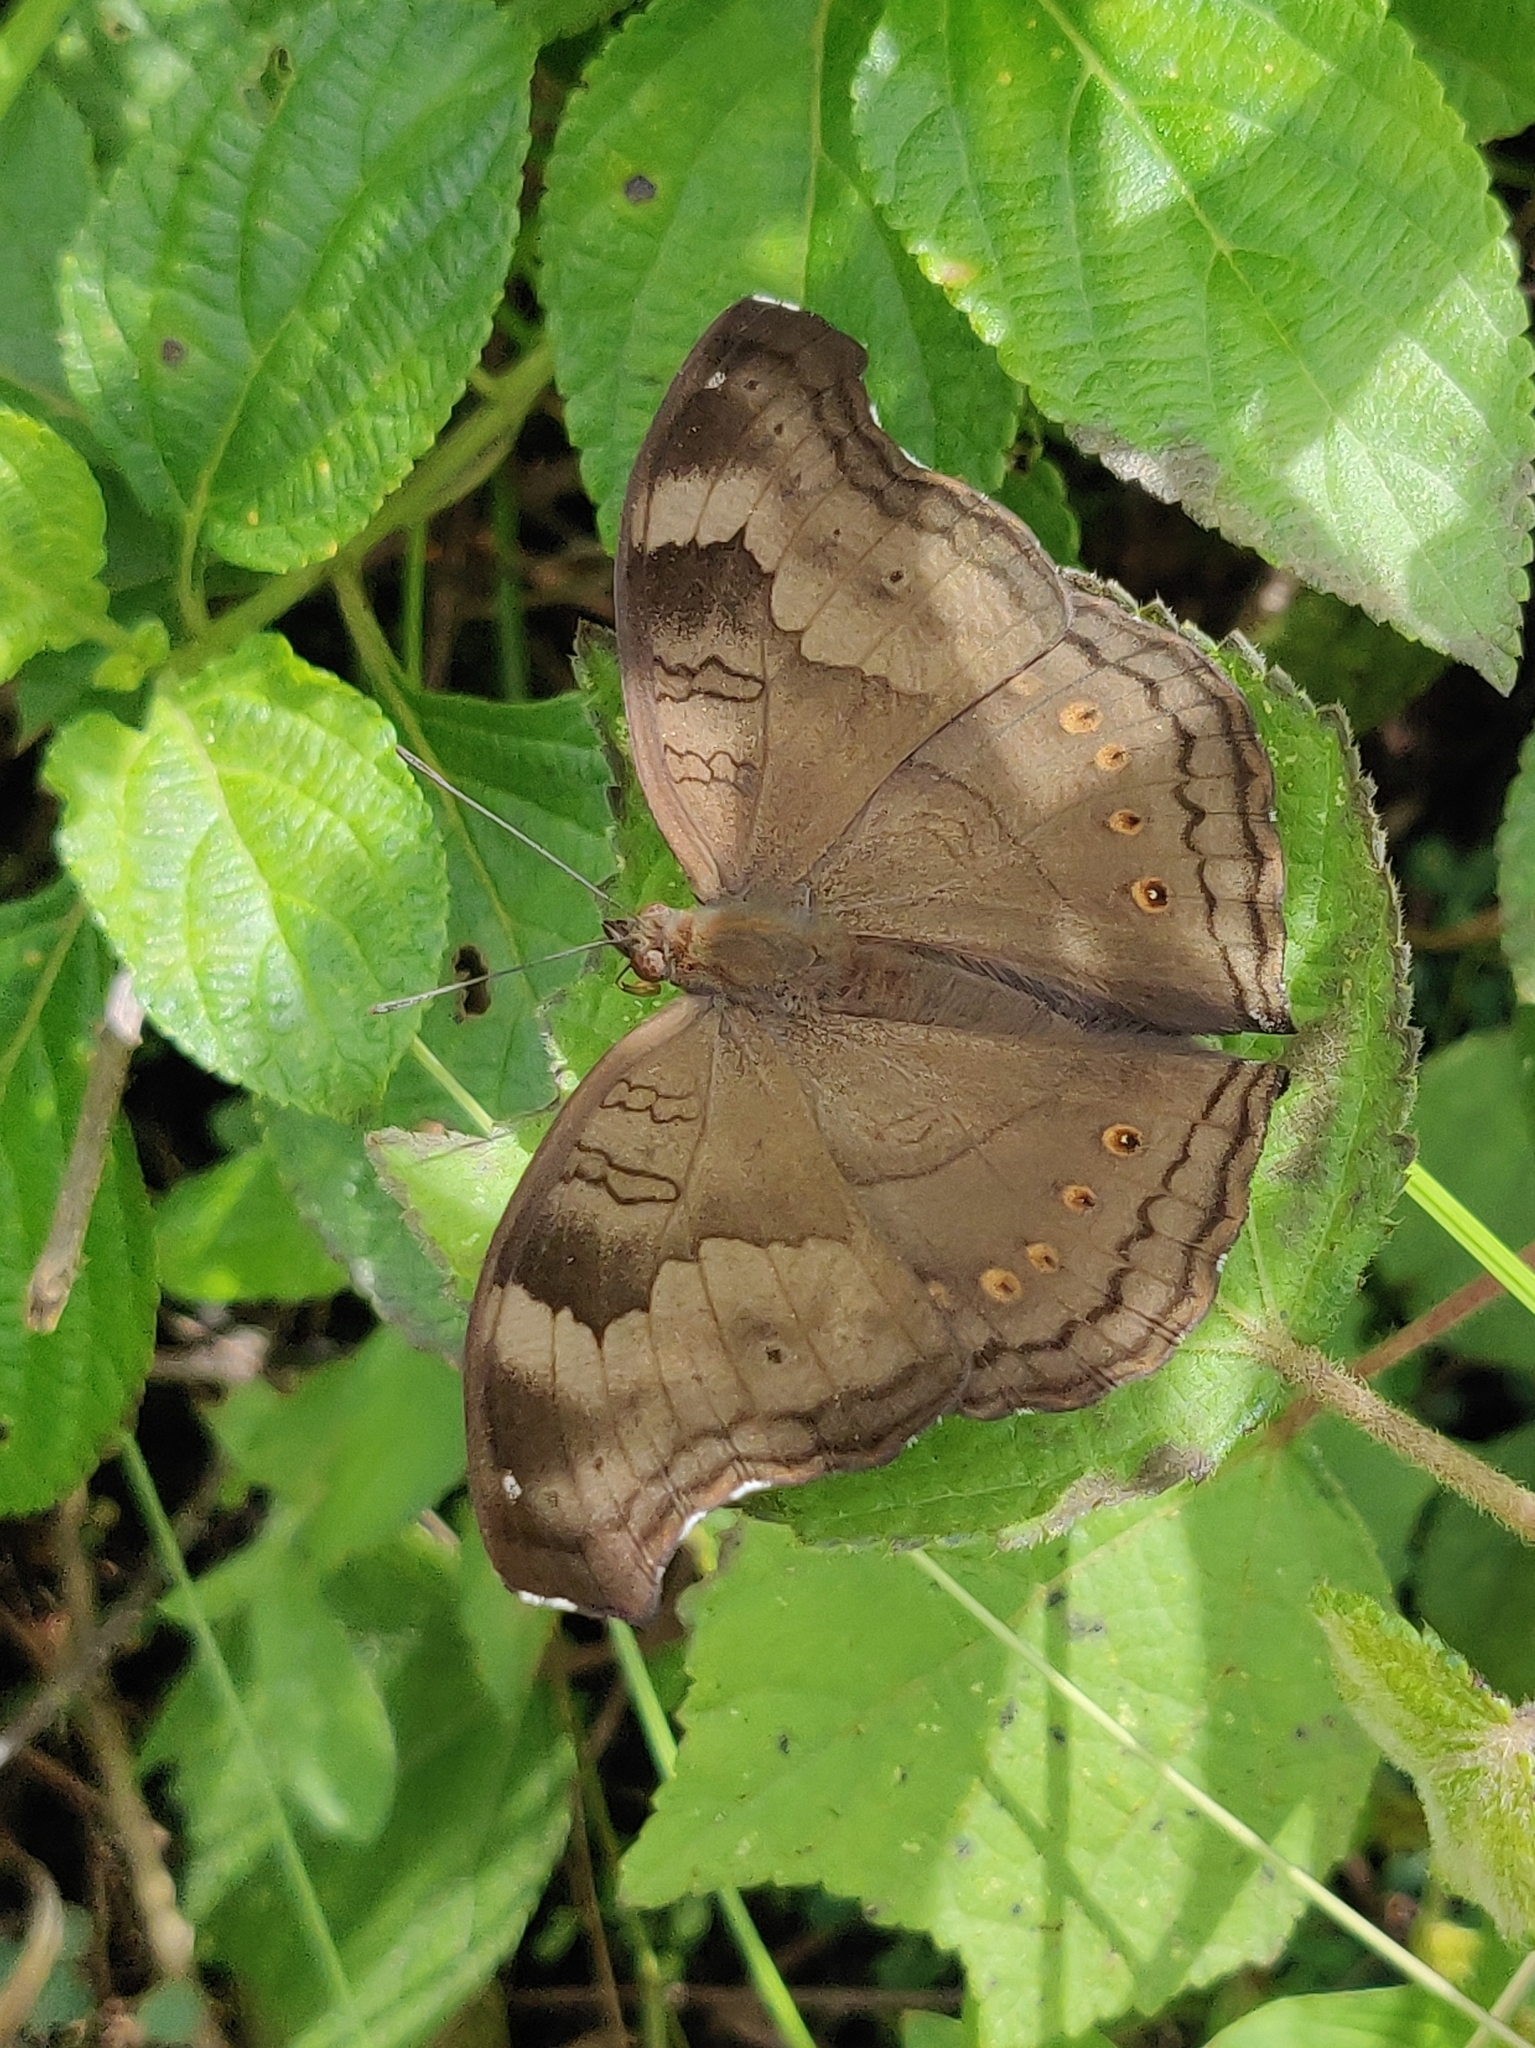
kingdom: Animalia
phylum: Arthropoda
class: Insecta
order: Lepidoptera
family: Nymphalidae
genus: Junonia
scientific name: Junonia iphita
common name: Chocolate pansy
